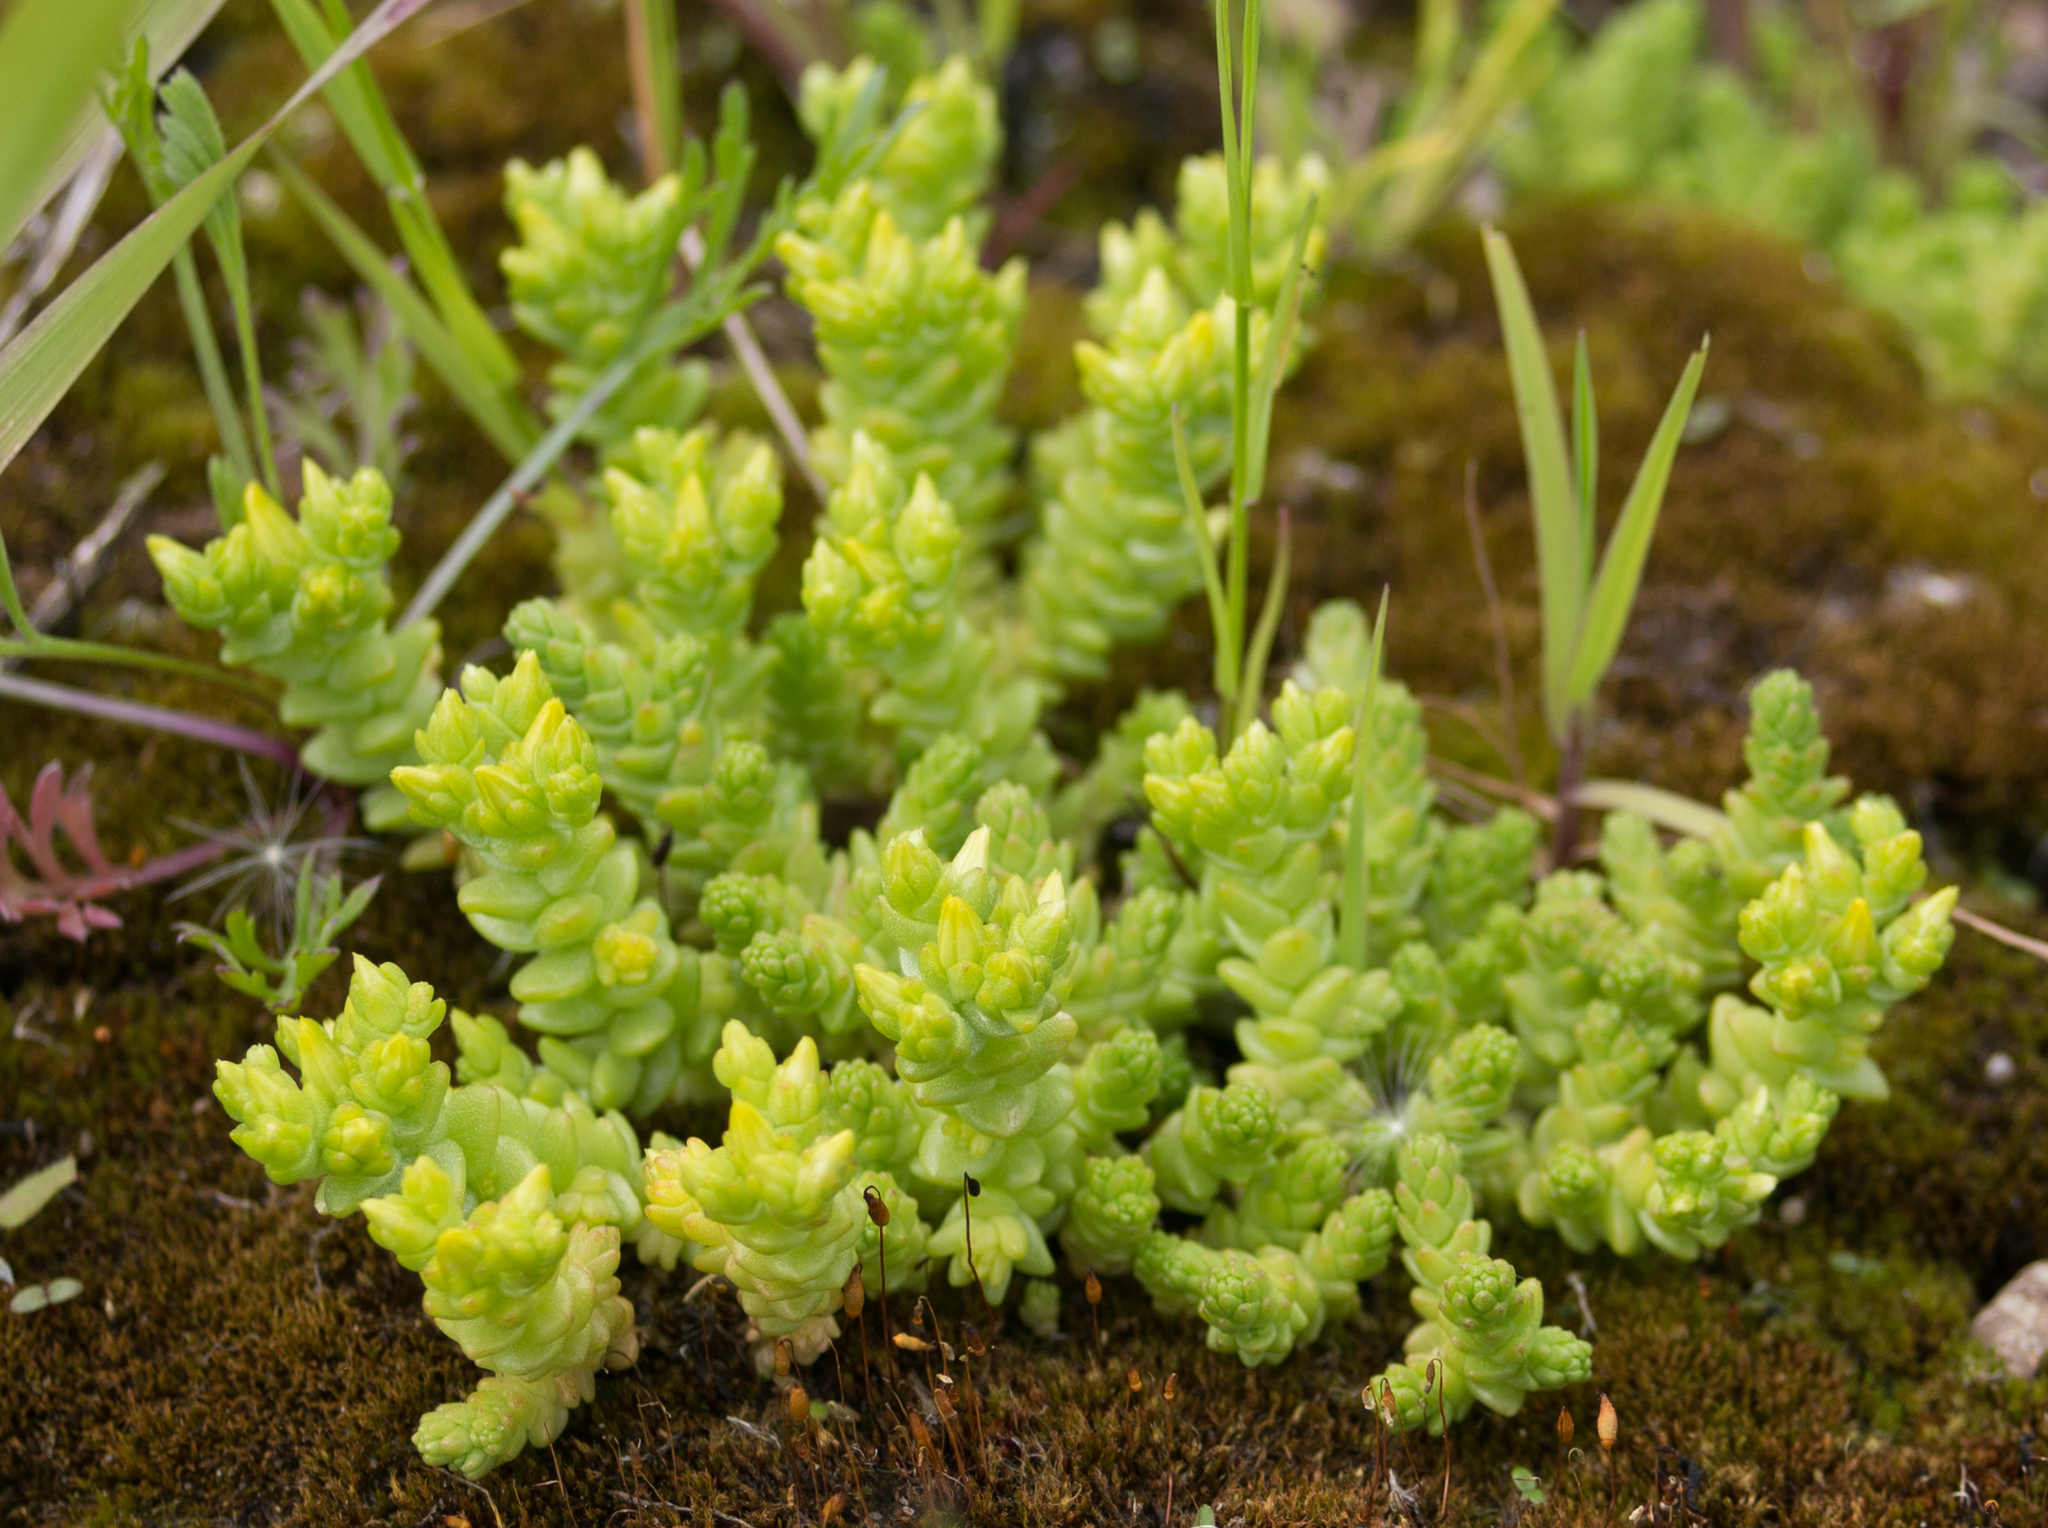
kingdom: Plantae
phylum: Tracheophyta
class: Magnoliopsida
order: Saxifragales
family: Crassulaceae
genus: Sedum
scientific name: Sedum acre
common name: Biting stonecrop
